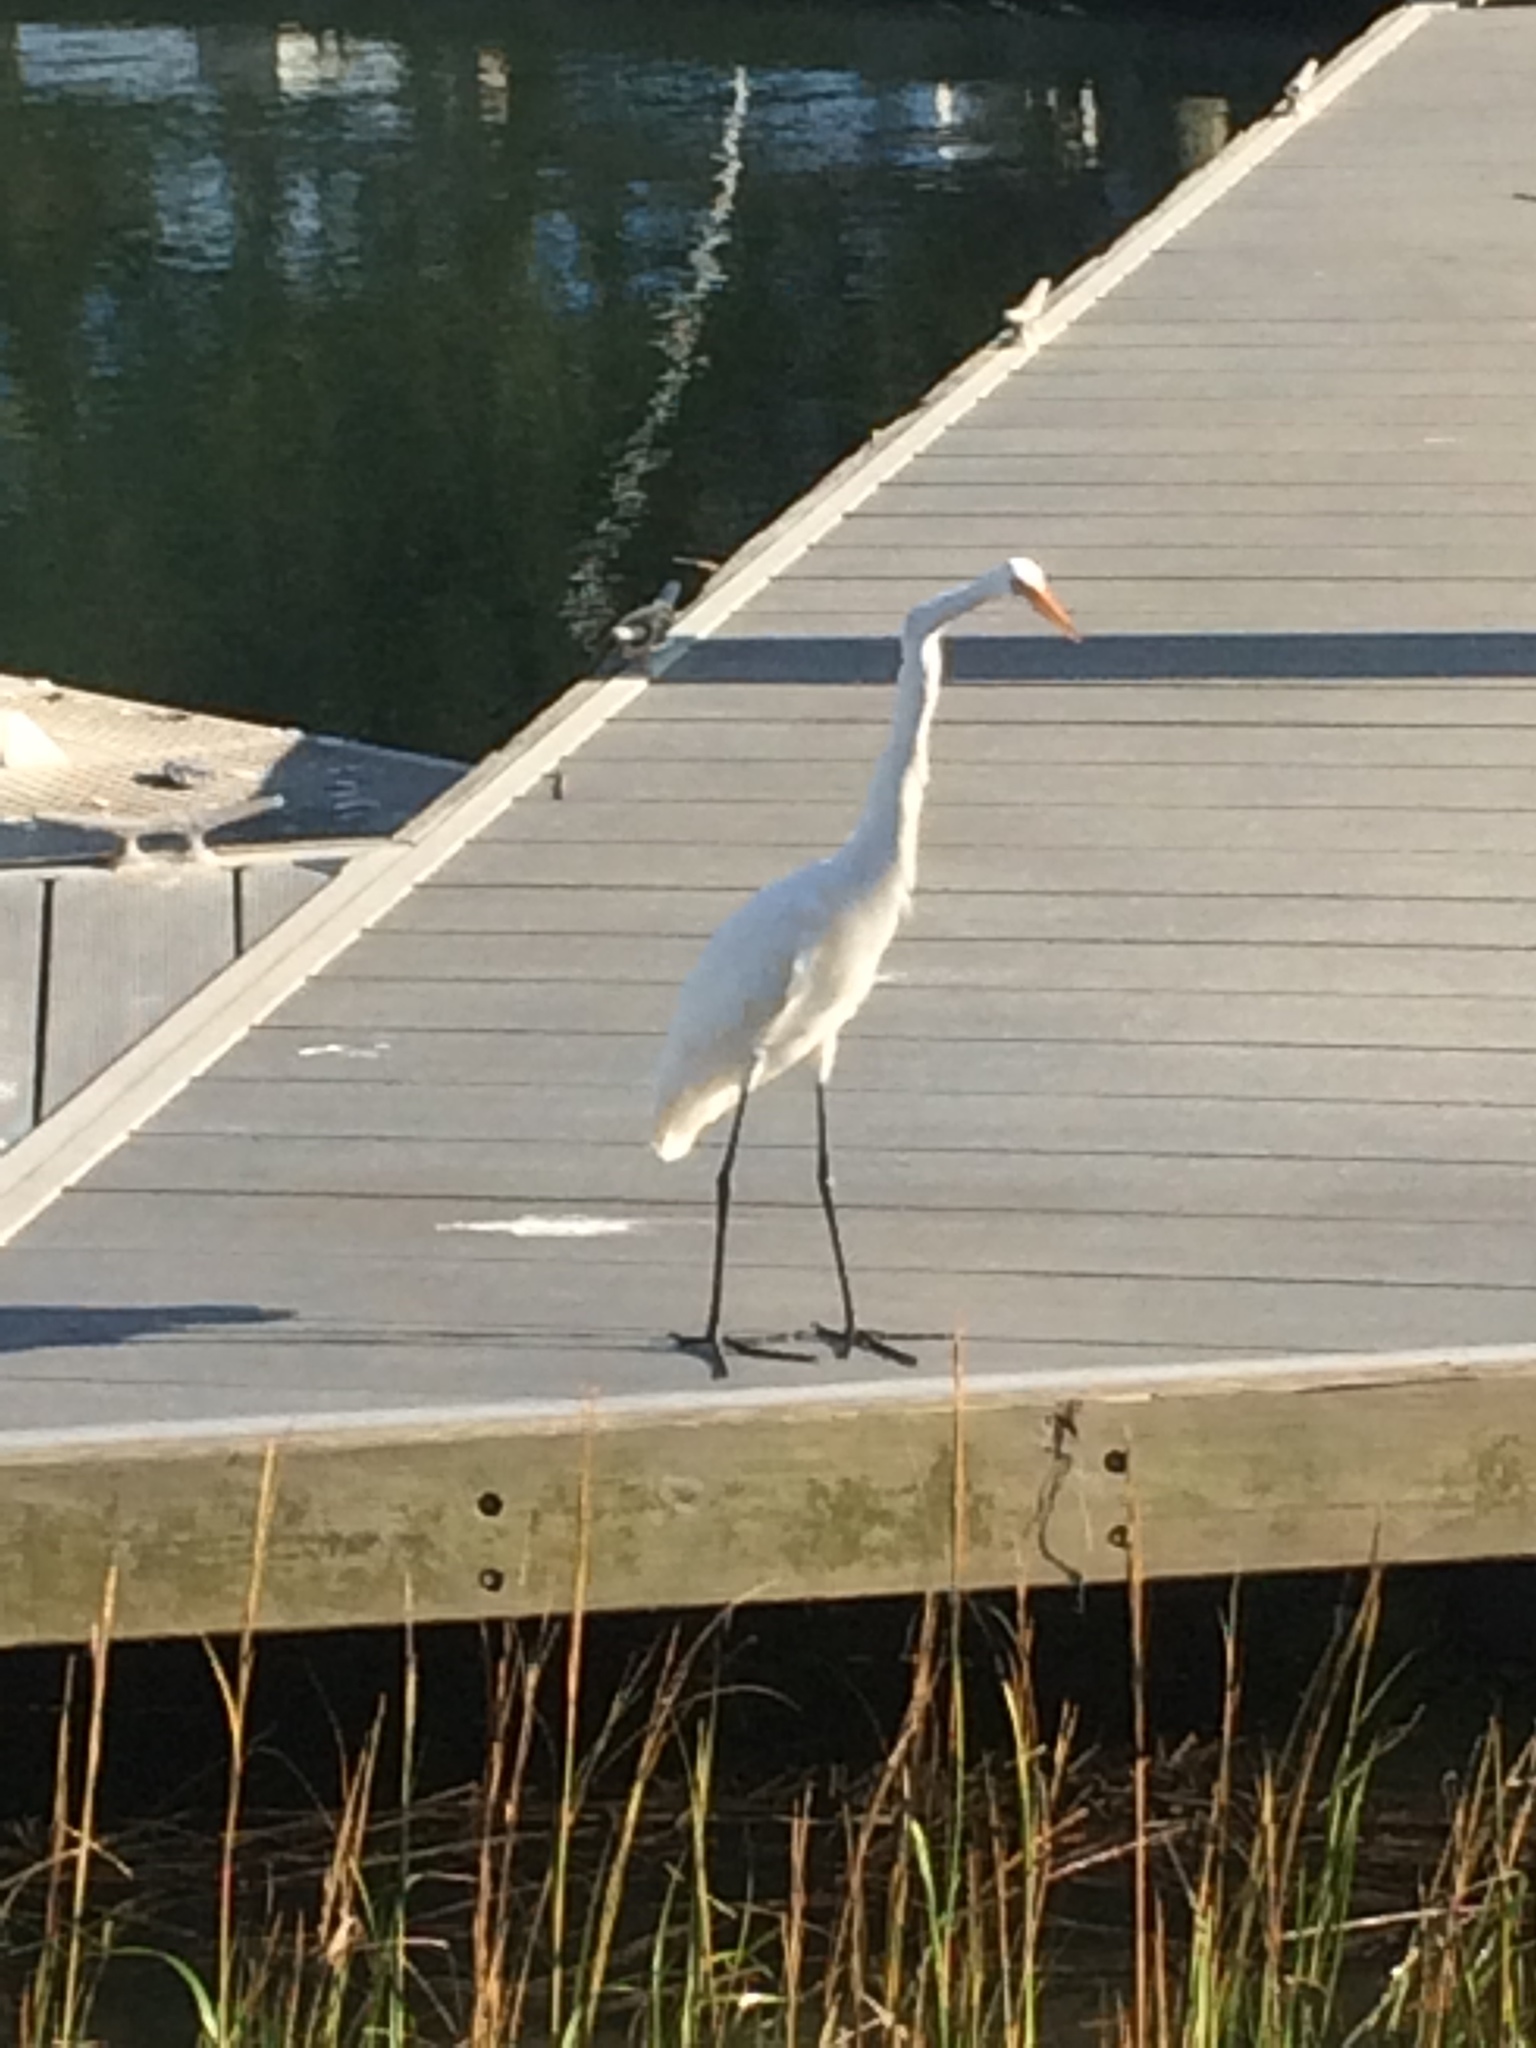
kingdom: Animalia
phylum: Chordata
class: Aves
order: Pelecaniformes
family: Ardeidae
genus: Ardea
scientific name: Ardea alba
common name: Great egret
